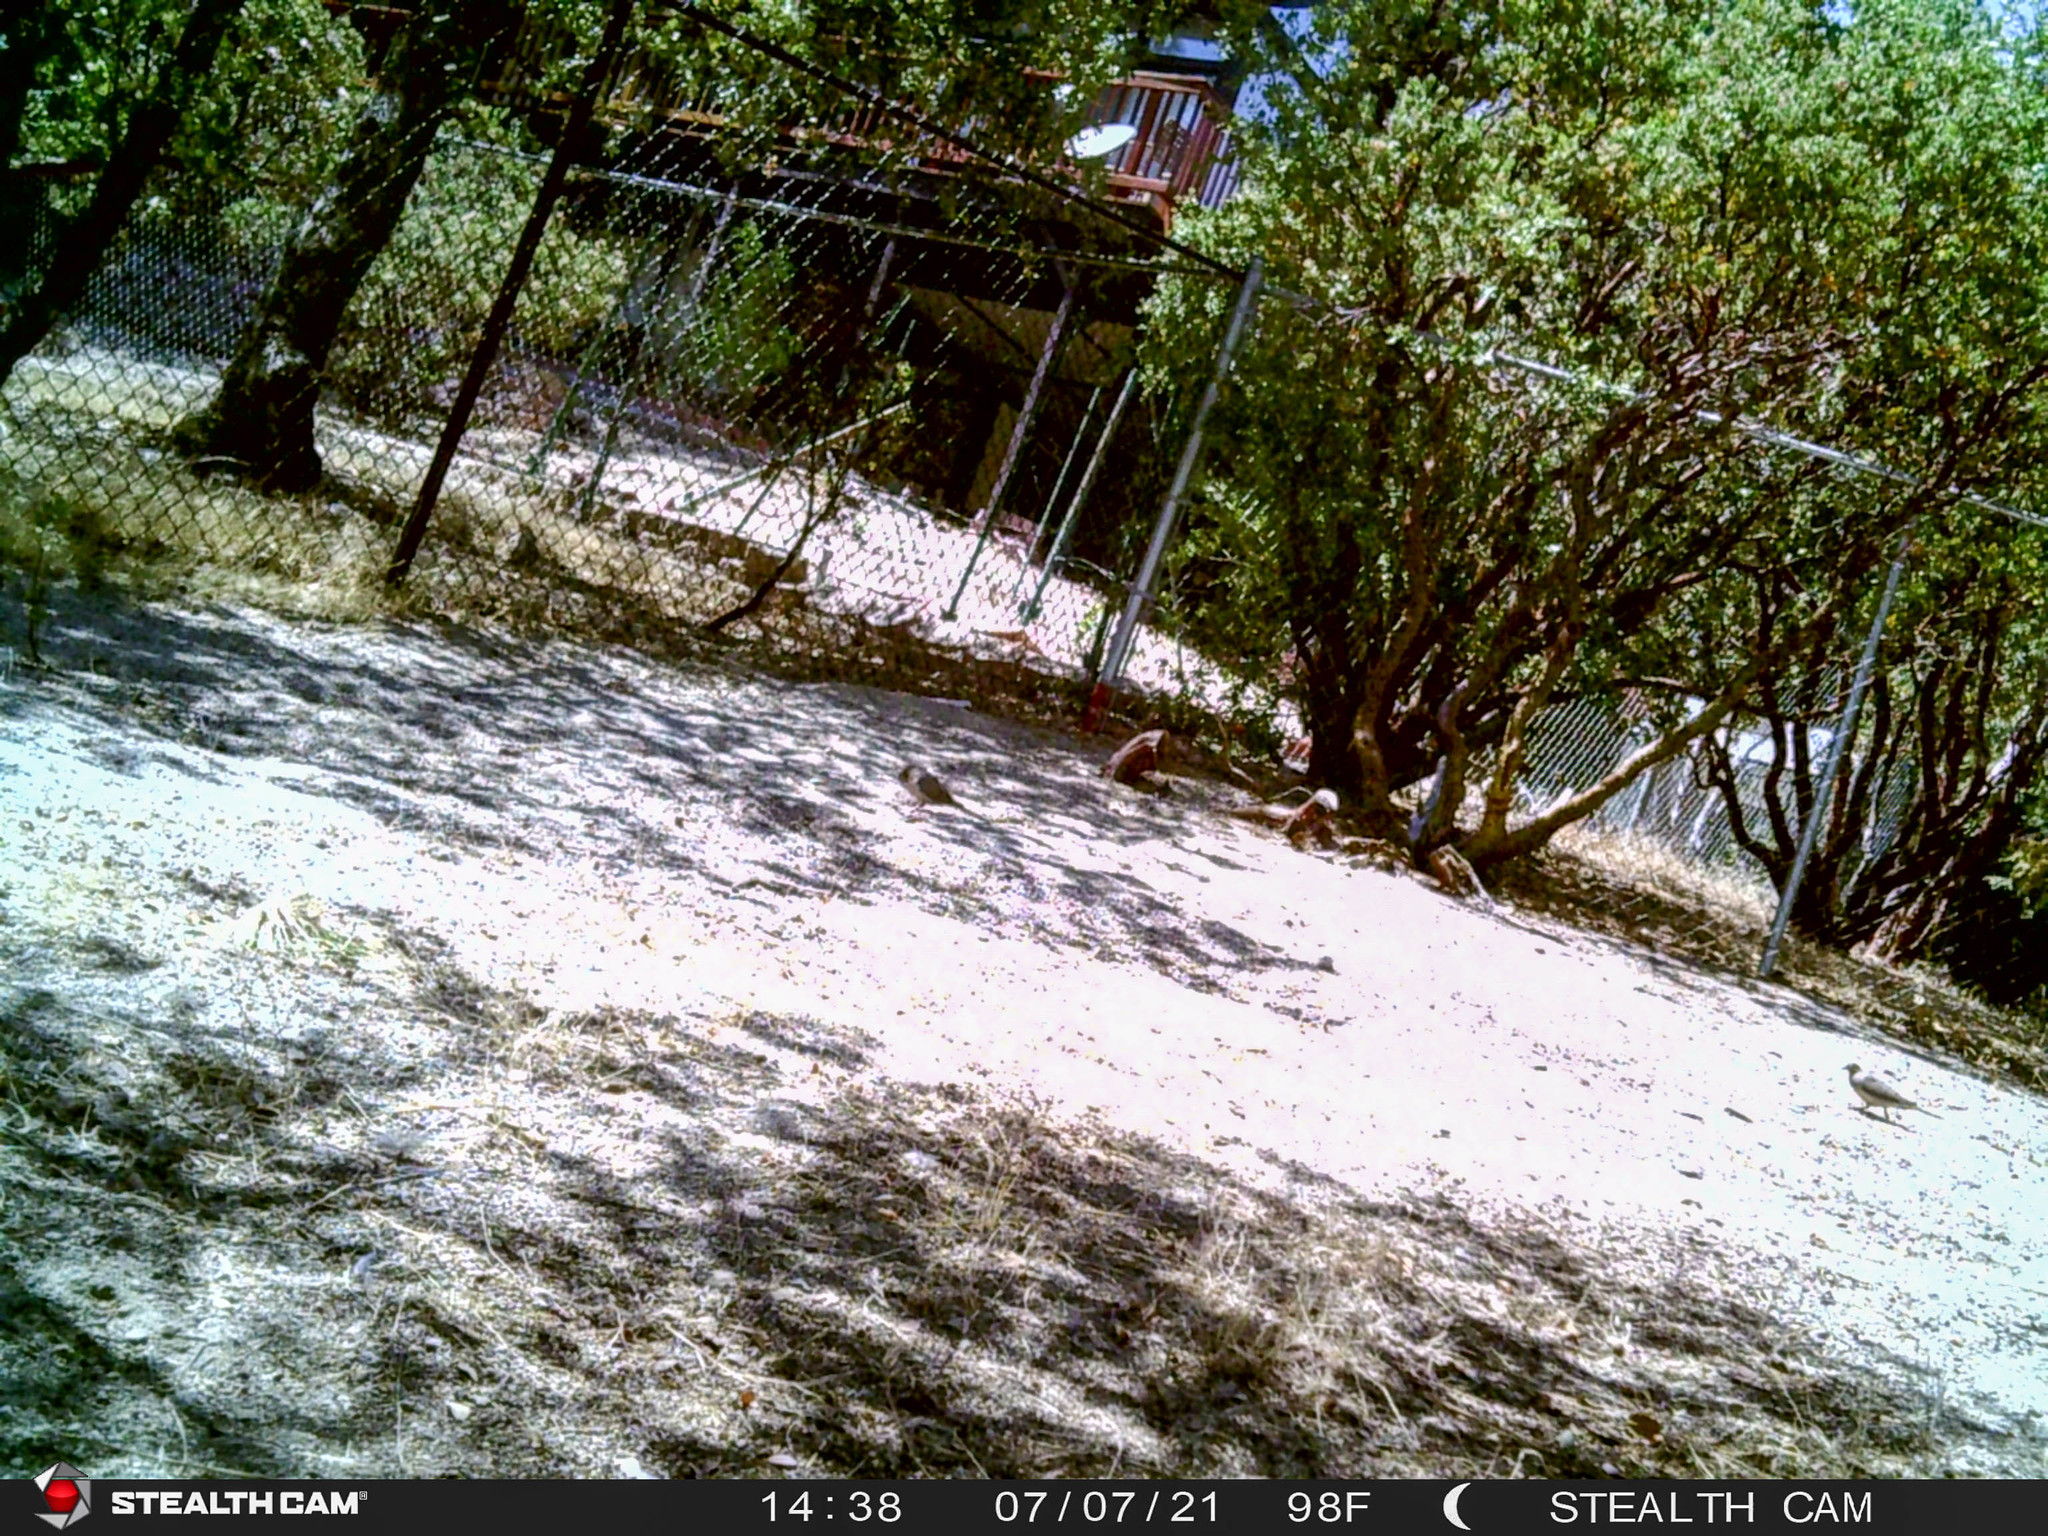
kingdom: Animalia
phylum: Chordata
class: Aves
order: Columbiformes
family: Columbidae
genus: Zenaida
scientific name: Zenaida macroura
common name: Mourning dove
